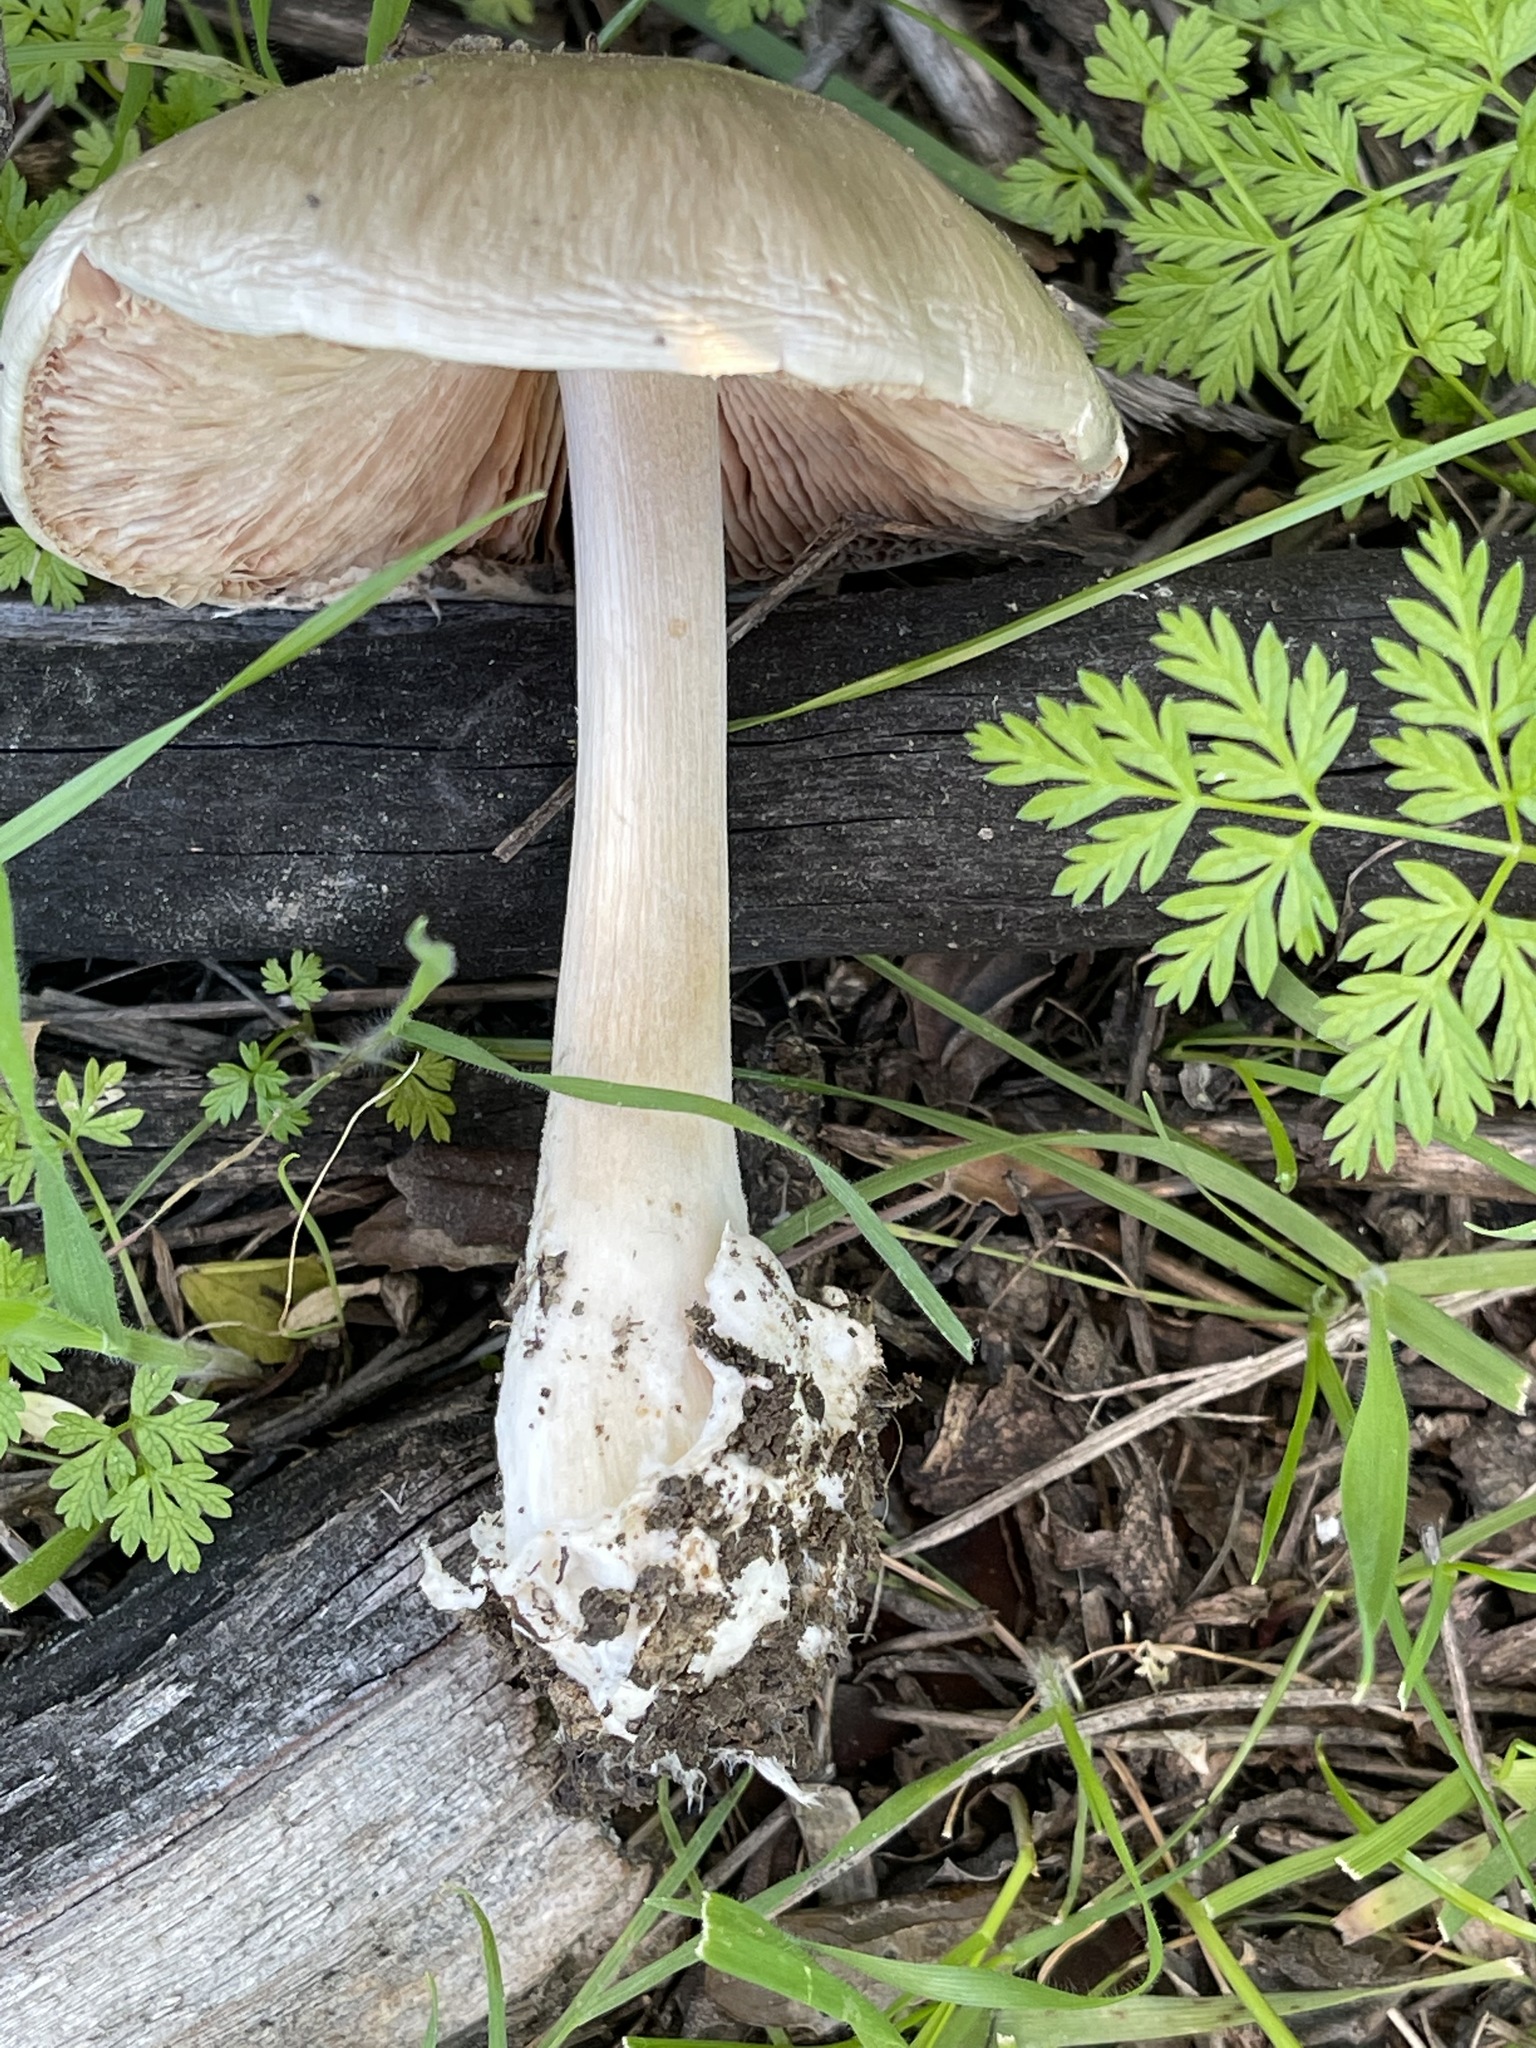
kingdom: Fungi
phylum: Basidiomycota
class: Agaricomycetes
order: Agaricales
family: Pluteaceae
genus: Volvopluteus
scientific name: Volvopluteus gloiocephalus
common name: Stubble rosegill
